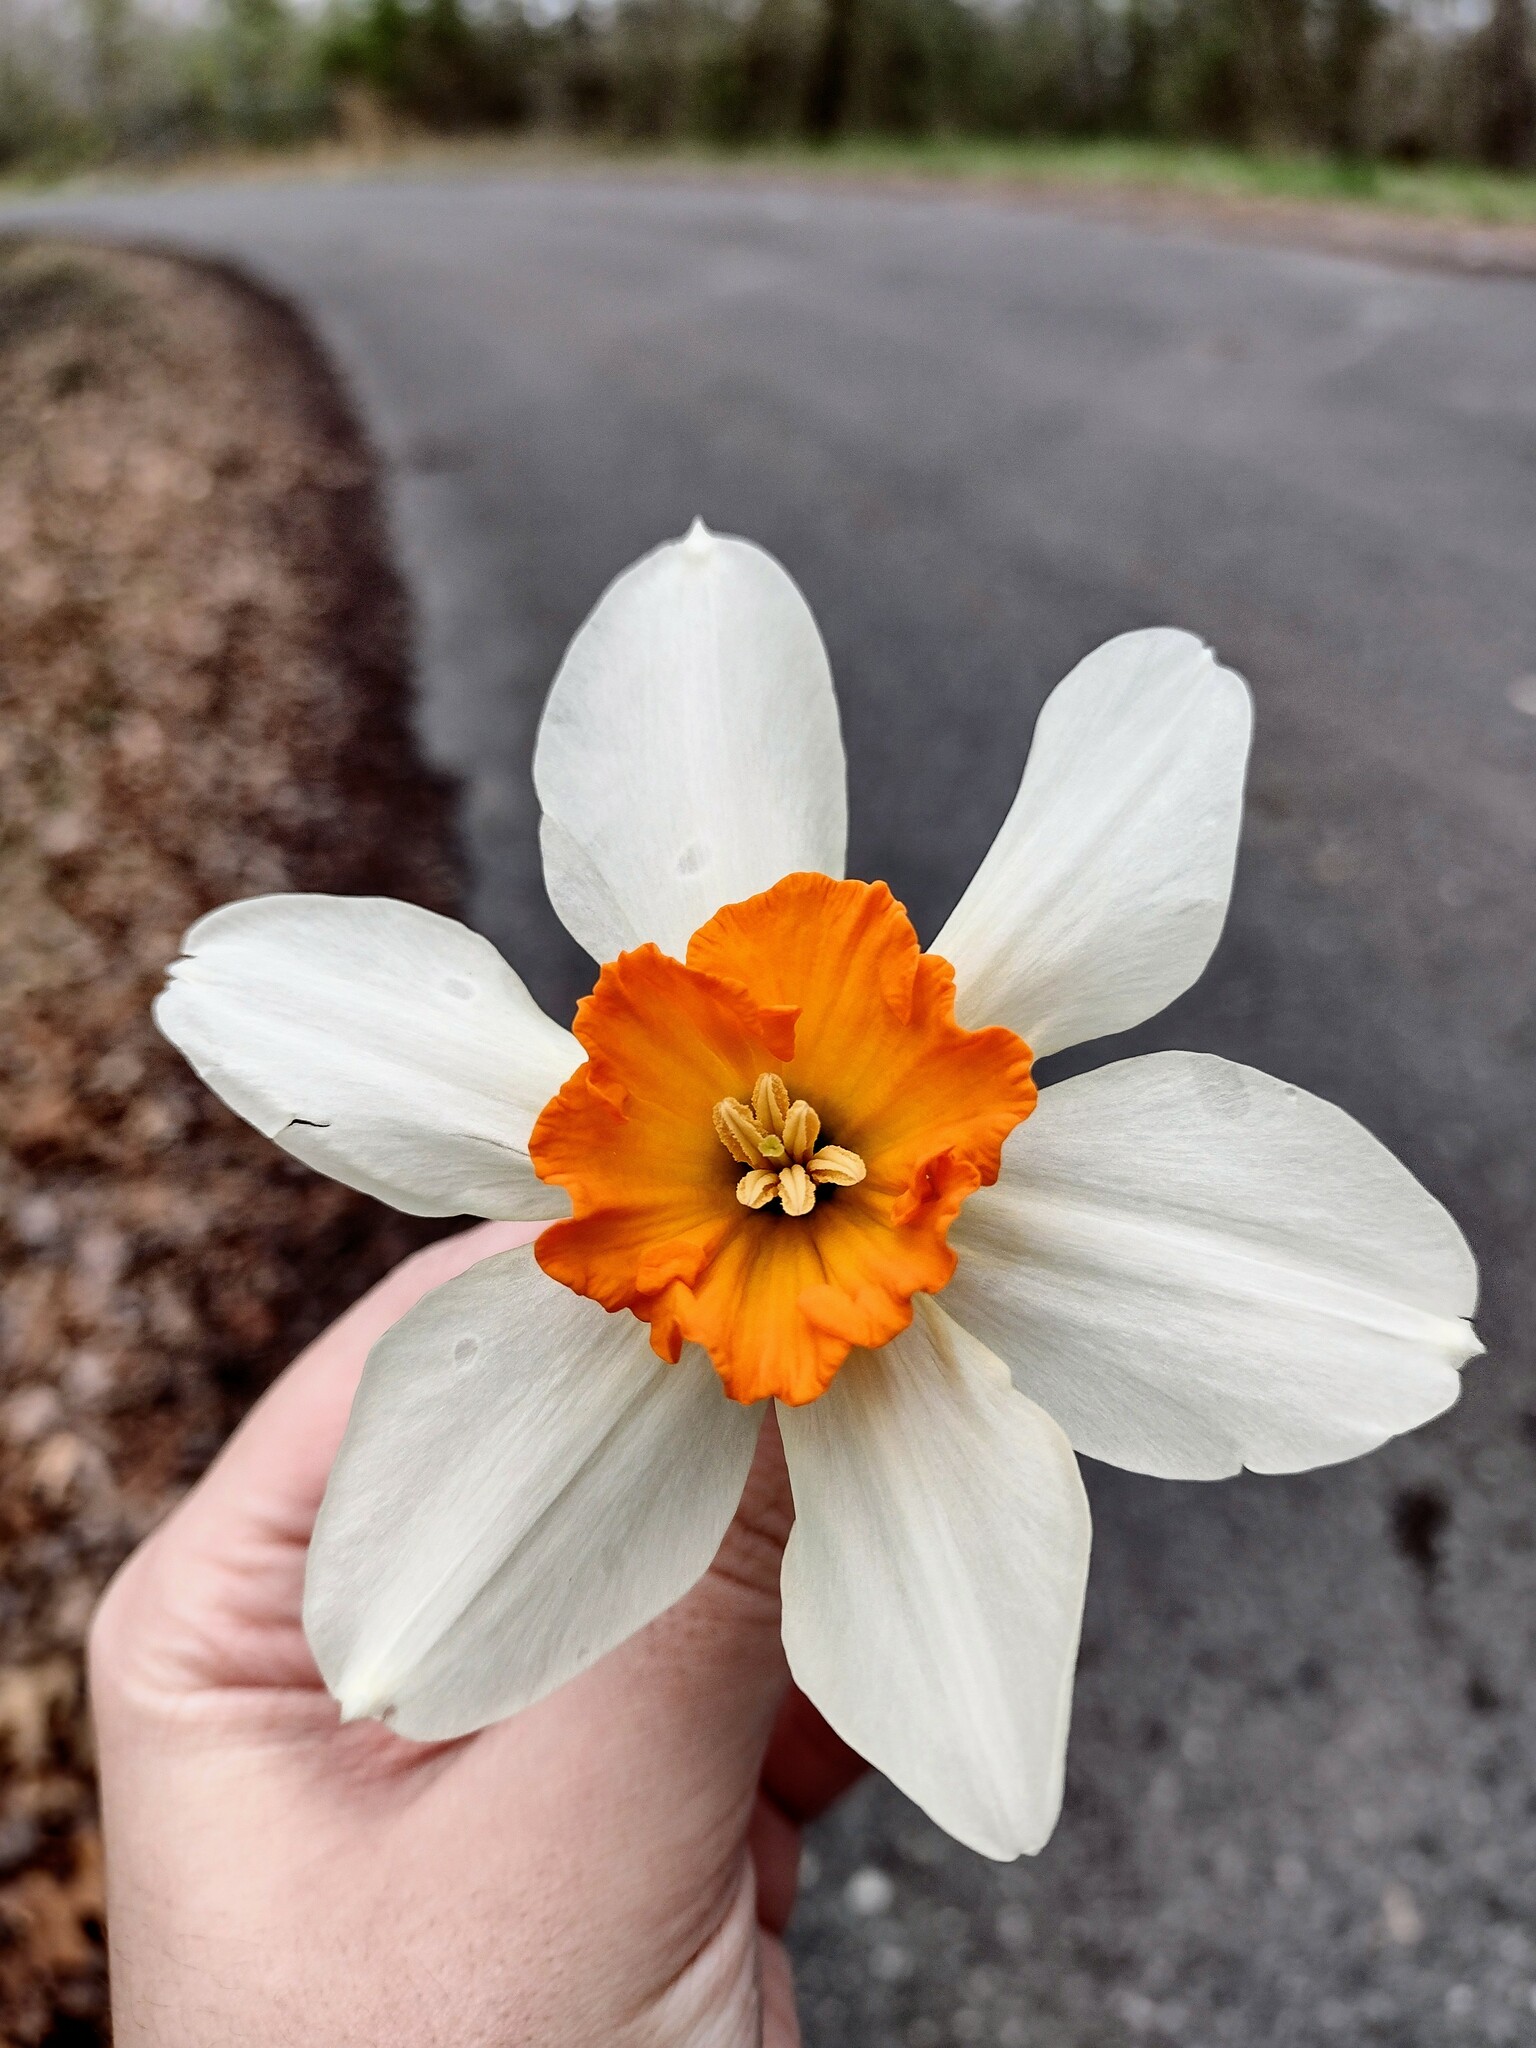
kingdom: Plantae
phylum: Tracheophyta
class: Liliopsida
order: Asparagales
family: Amaryllidaceae
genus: Narcissus
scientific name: Narcissus poeticus
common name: Pheasant's-eye daffodil
